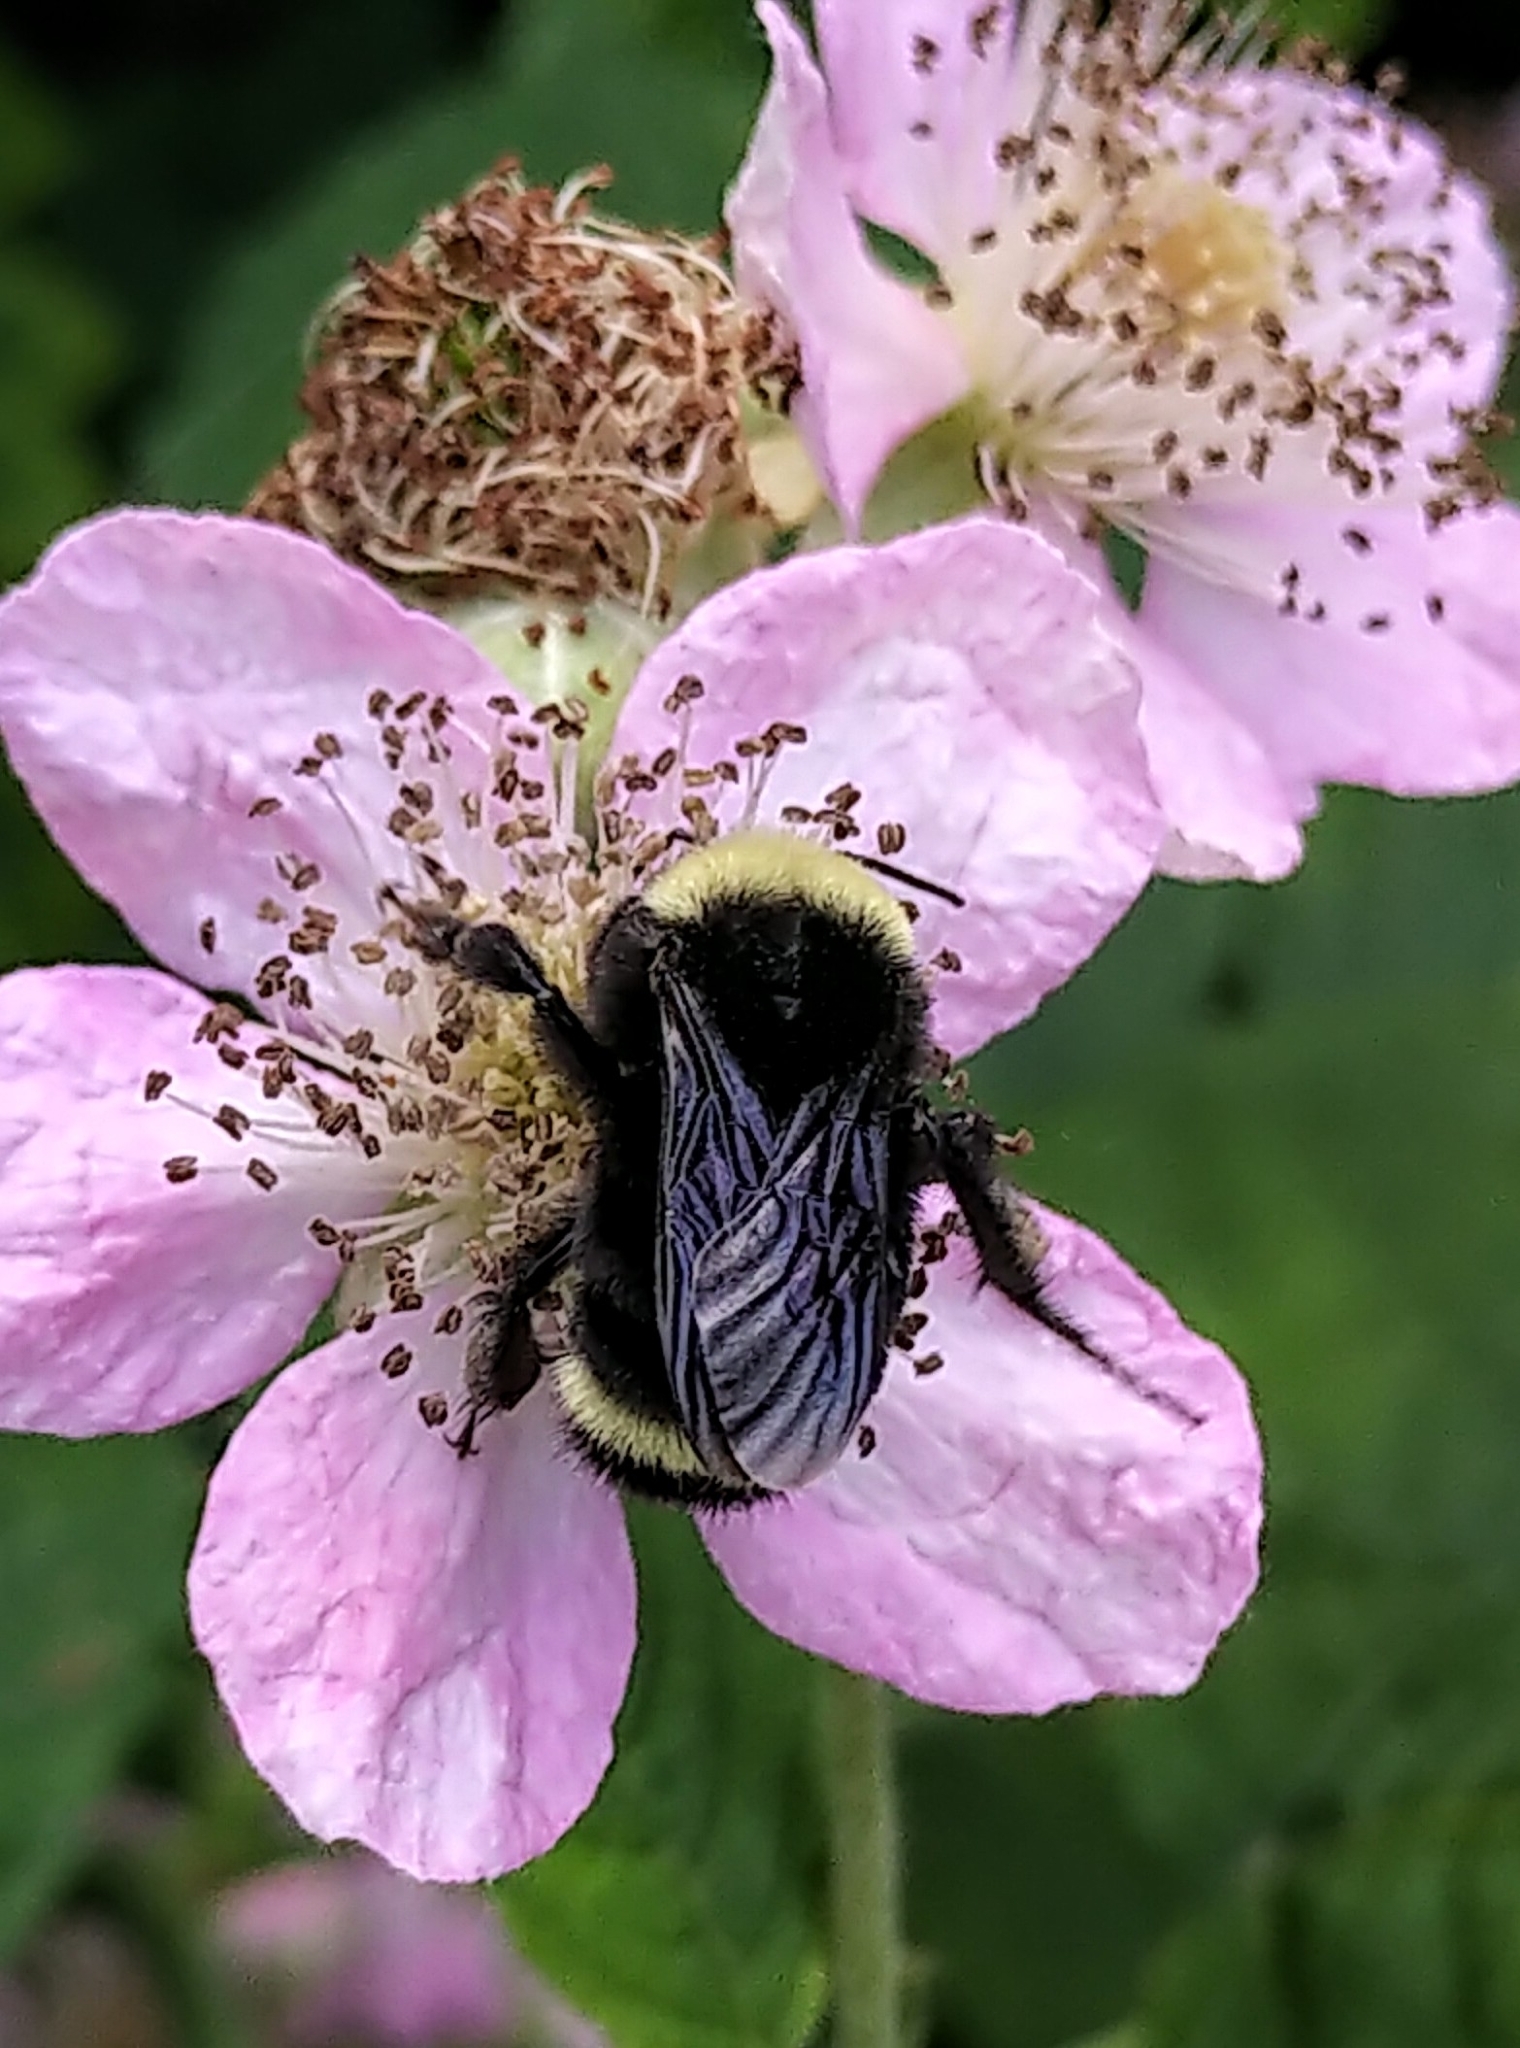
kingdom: Animalia
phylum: Arthropoda
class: Insecta
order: Hymenoptera
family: Apidae
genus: Bombus
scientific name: Bombus vosnesenskii
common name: Vosnesensky bumble bee
